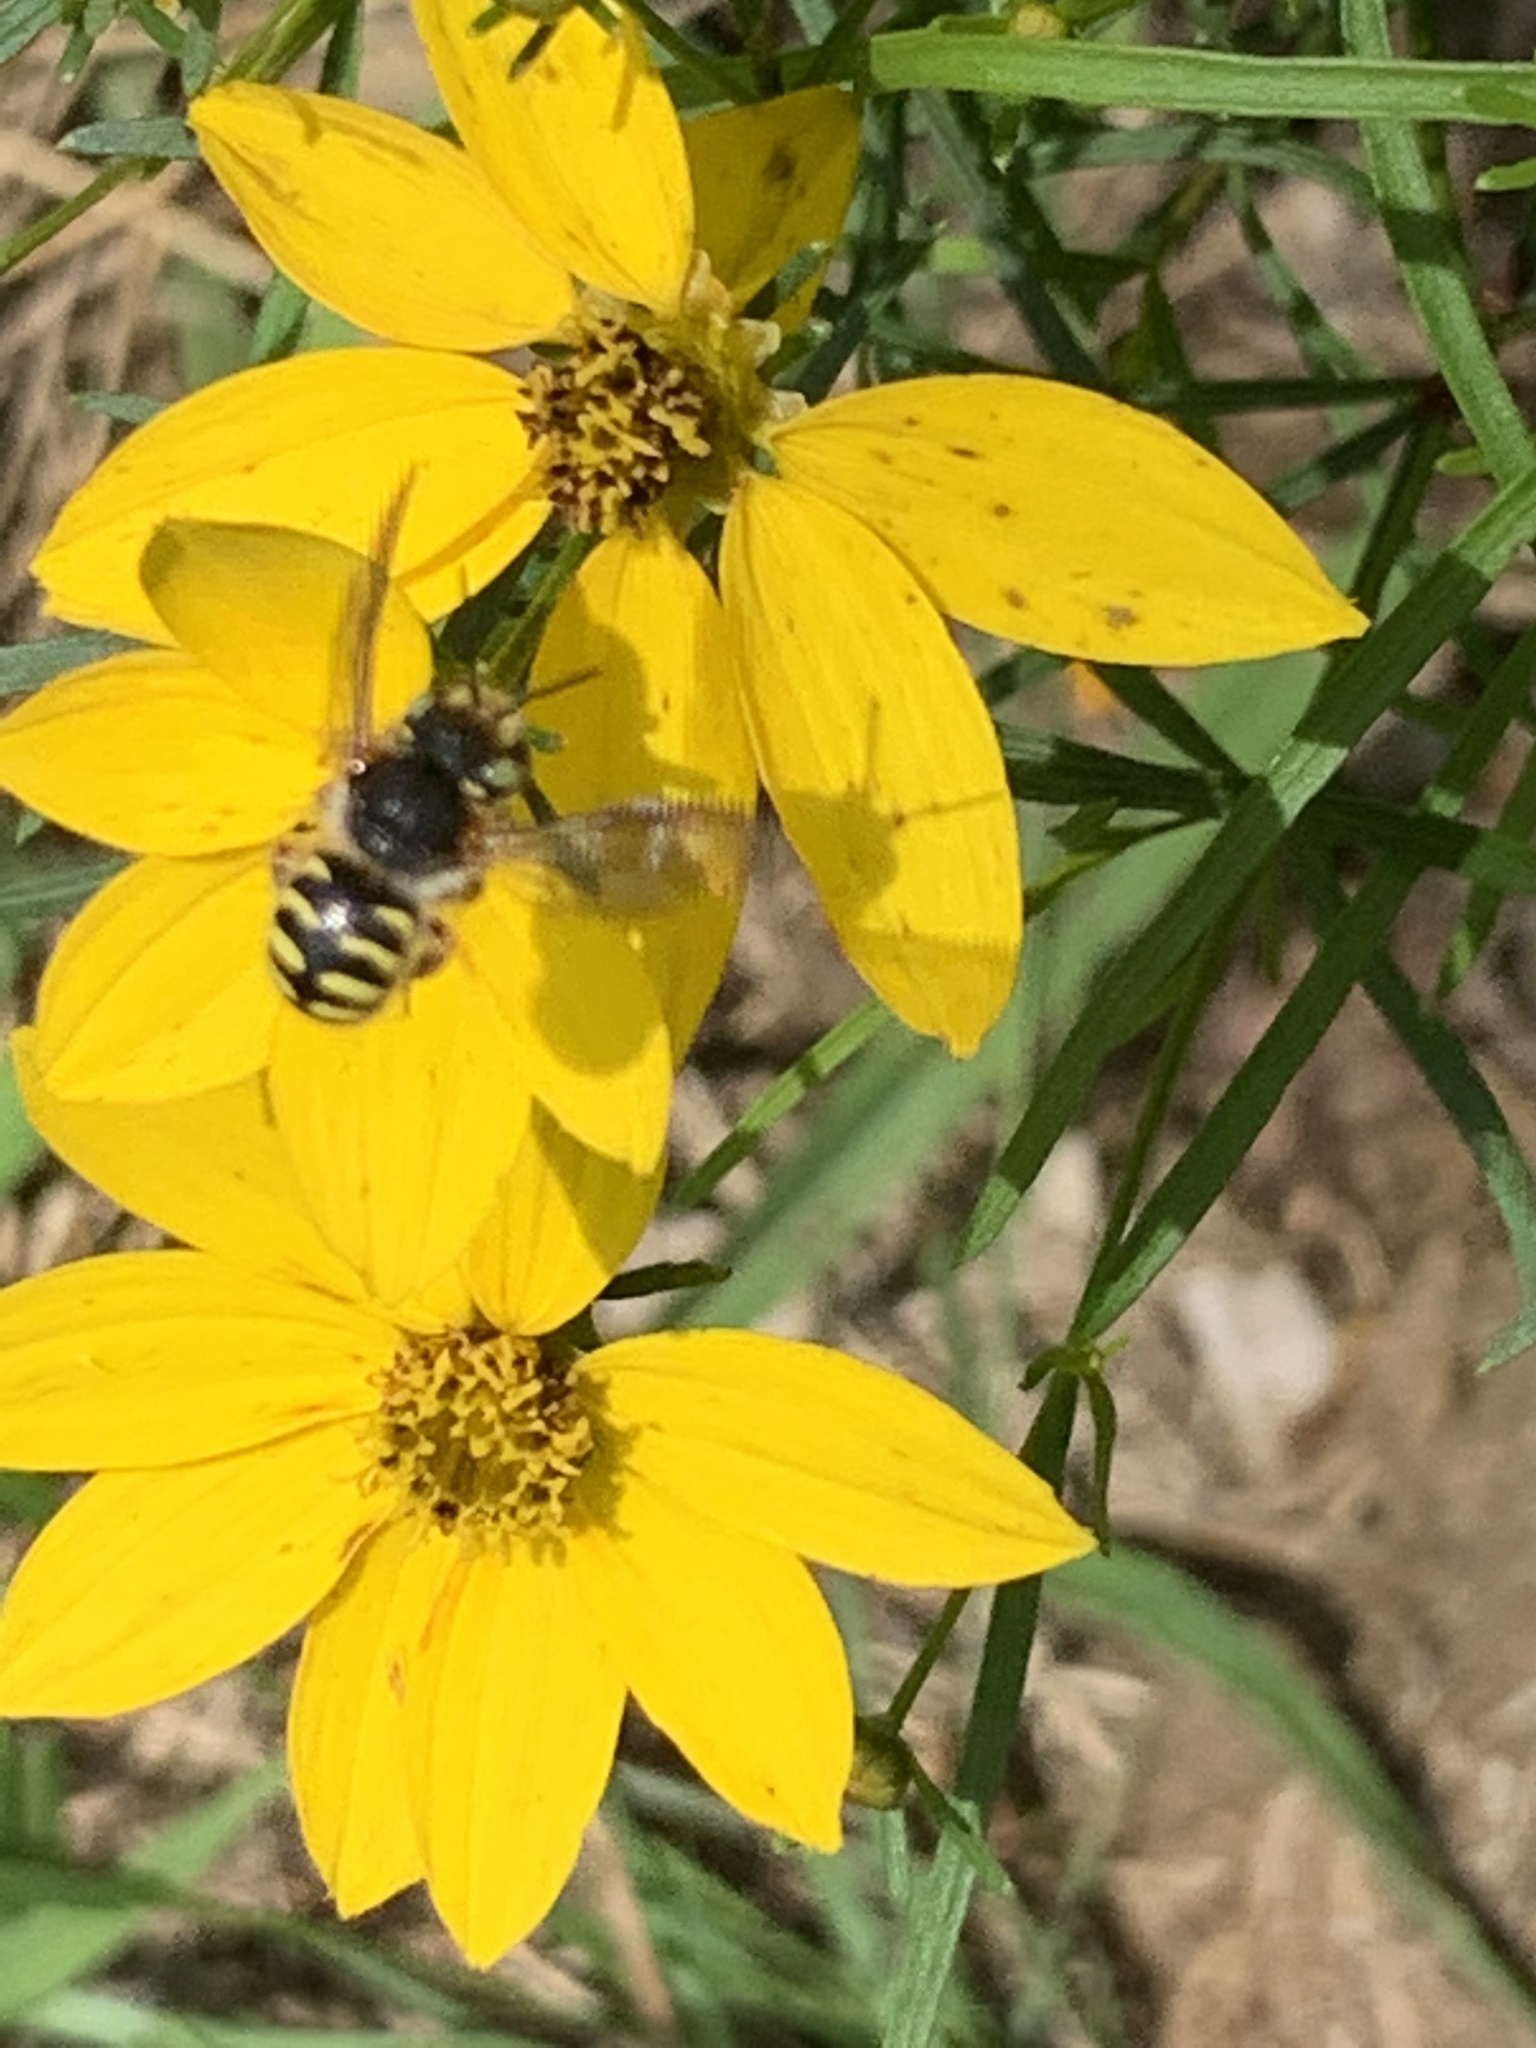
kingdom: Animalia
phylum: Arthropoda
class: Insecta
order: Hymenoptera
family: Megachilidae
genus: Anthidium
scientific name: Anthidium oblongatum
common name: Oblong wool carder bee
